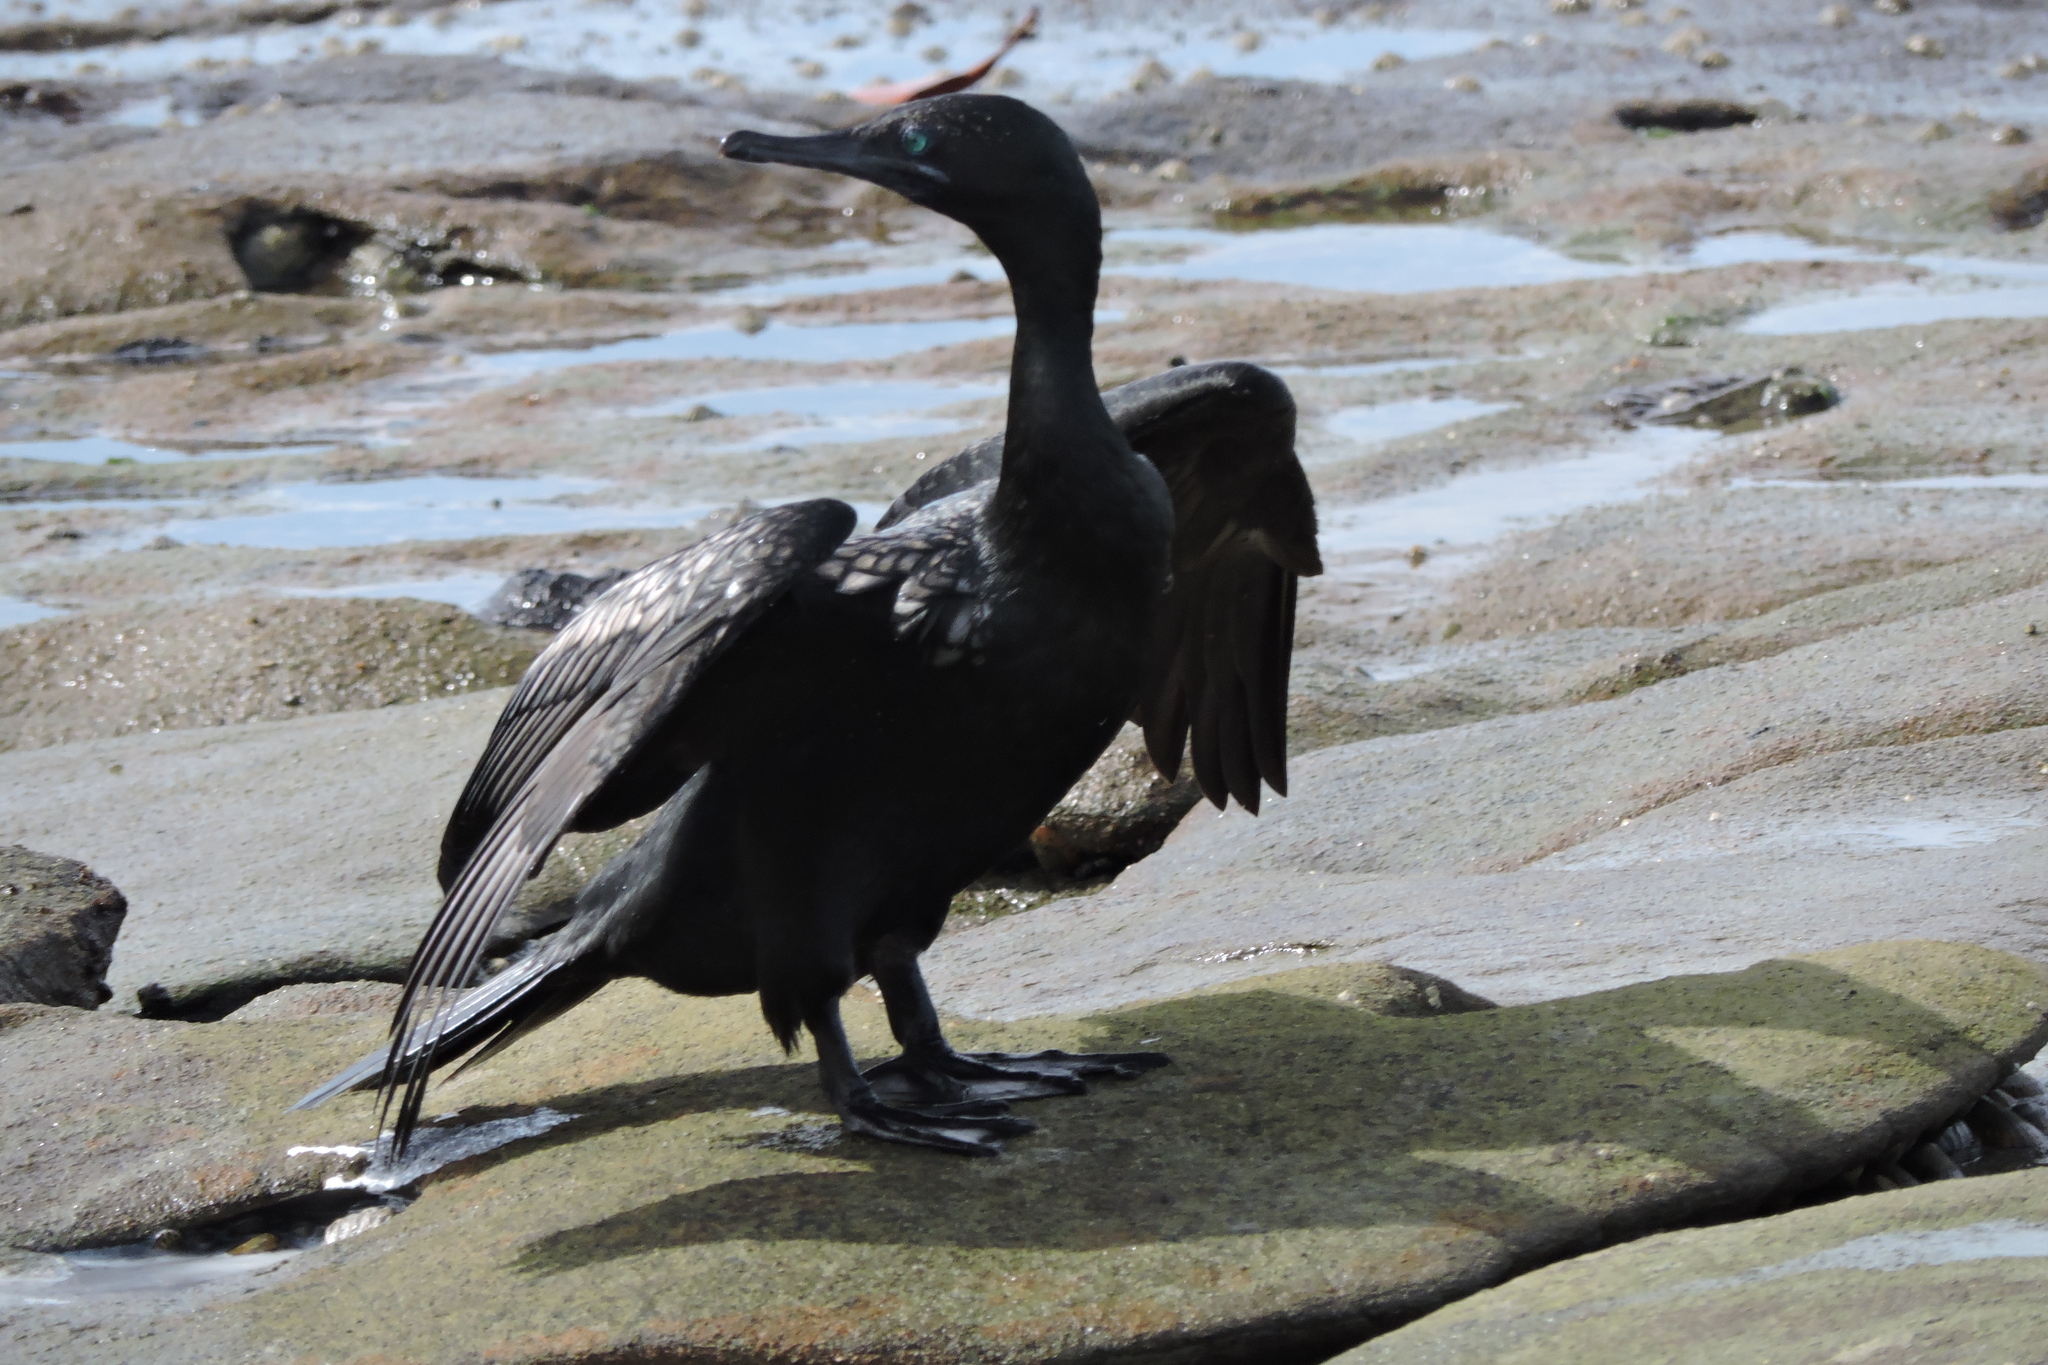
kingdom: Animalia
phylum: Chordata
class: Aves
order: Suliformes
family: Phalacrocoracidae
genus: Phalacrocorax
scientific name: Phalacrocorax sulcirostris
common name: Little black cormorant
